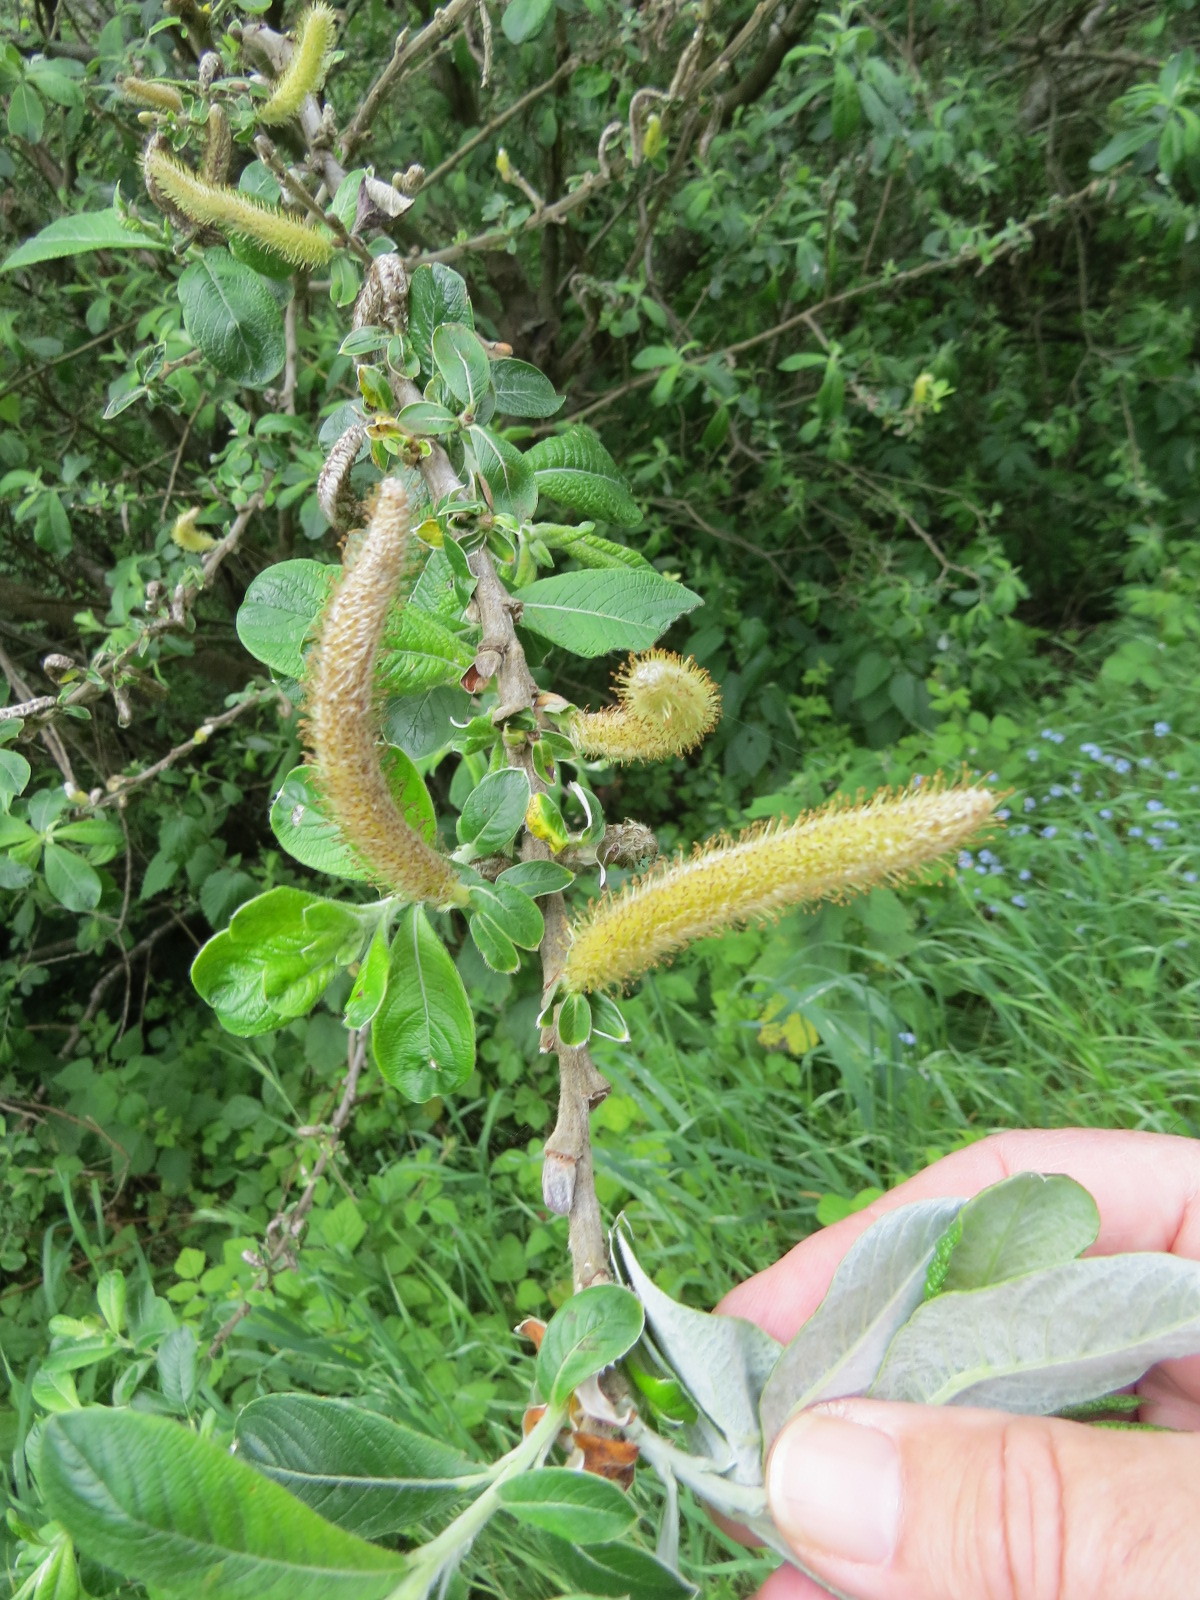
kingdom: Plantae
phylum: Tracheophyta
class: Magnoliopsida
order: Malpighiales
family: Salicaceae
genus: Salix
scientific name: Salix sitchensis
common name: Sitka willow
